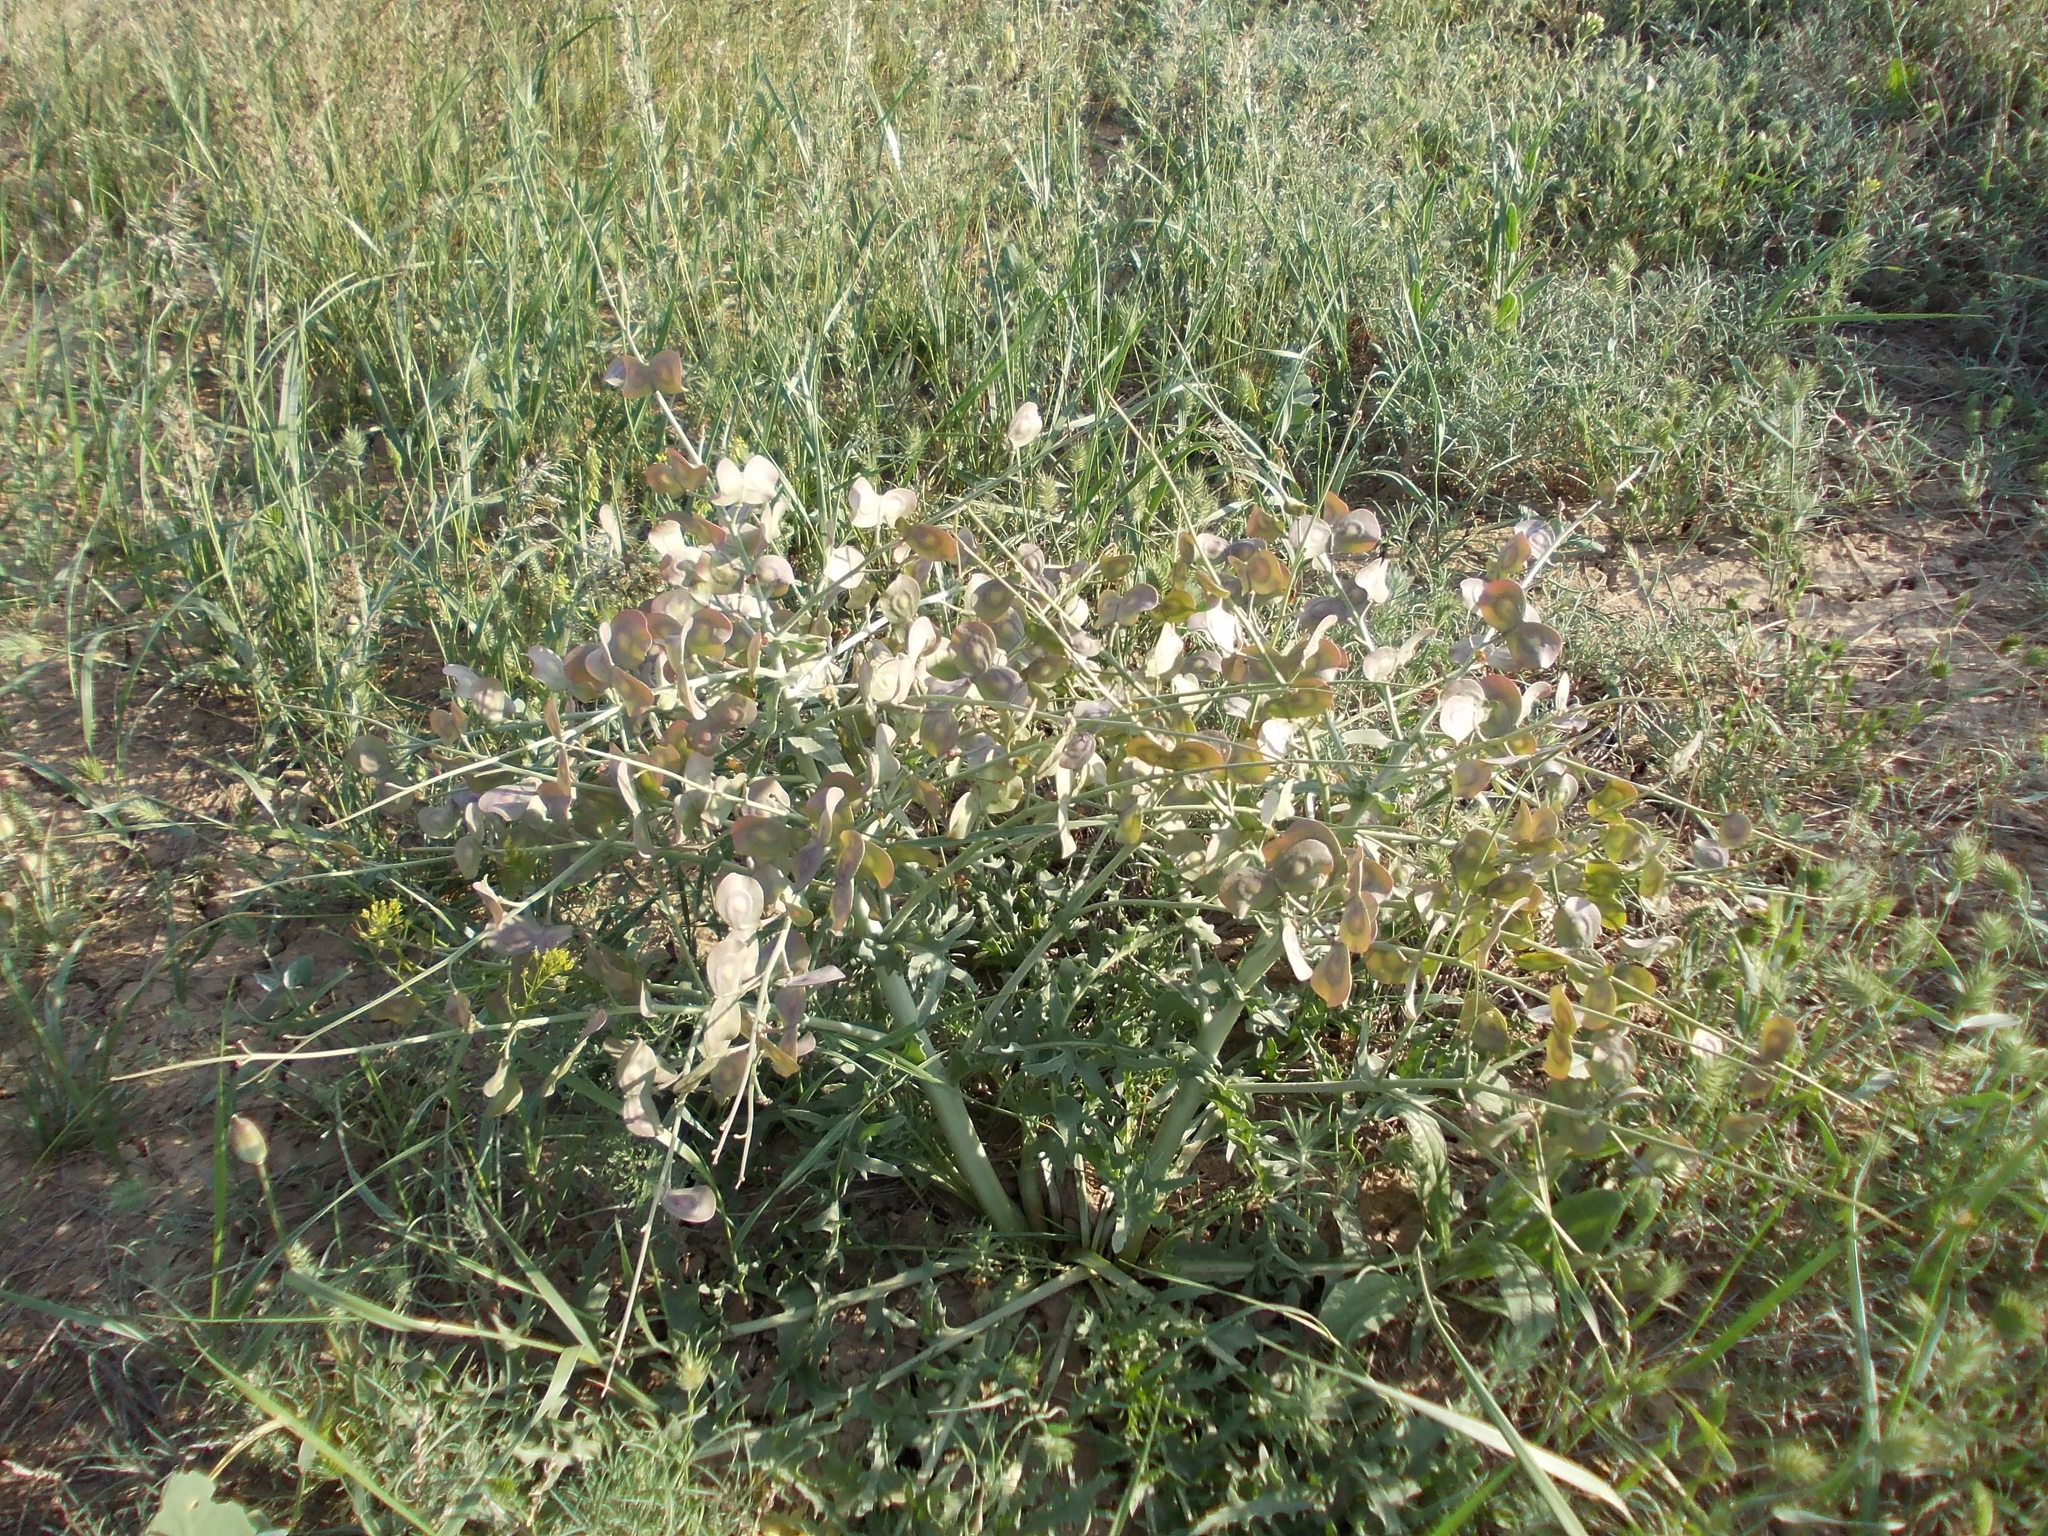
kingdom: Plantae
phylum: Tracheophyta
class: Magnoliopsida
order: Brassicales
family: Brassicaceae
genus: Megacarpaea
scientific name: Megacarpaea megalocarpa
